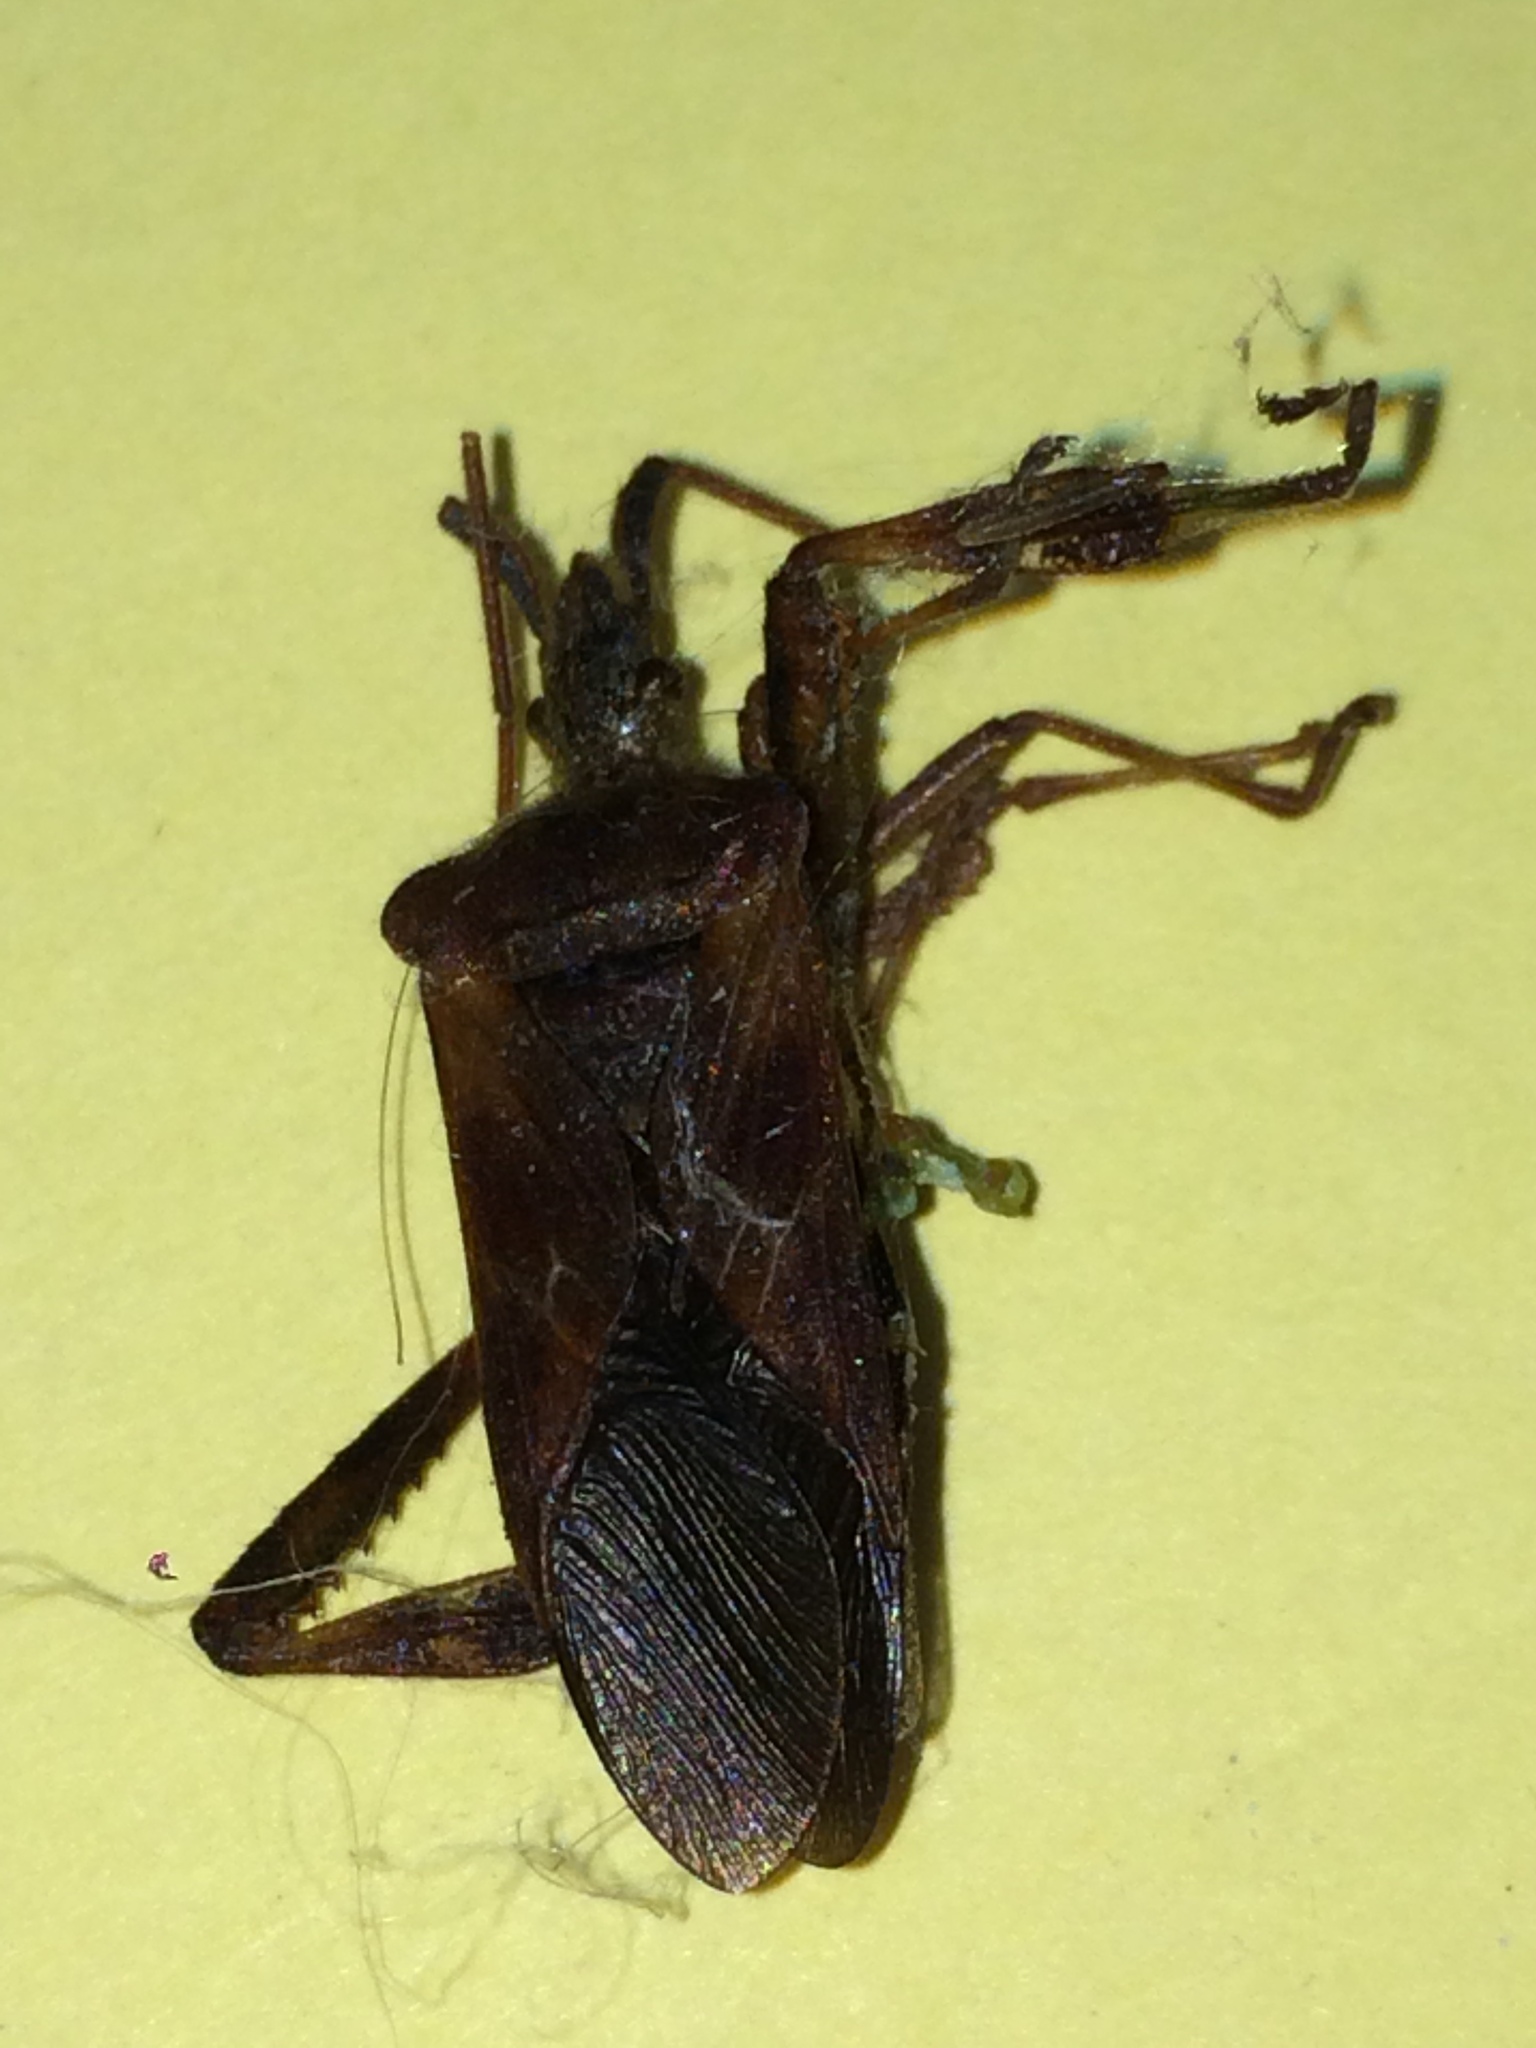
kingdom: Animalia
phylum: Arthropoda
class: Insecta
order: Hemiptera
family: Coreidae
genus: Leptoglossus
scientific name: Leptoglossus occidentalis
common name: Western conifer-seed bug
